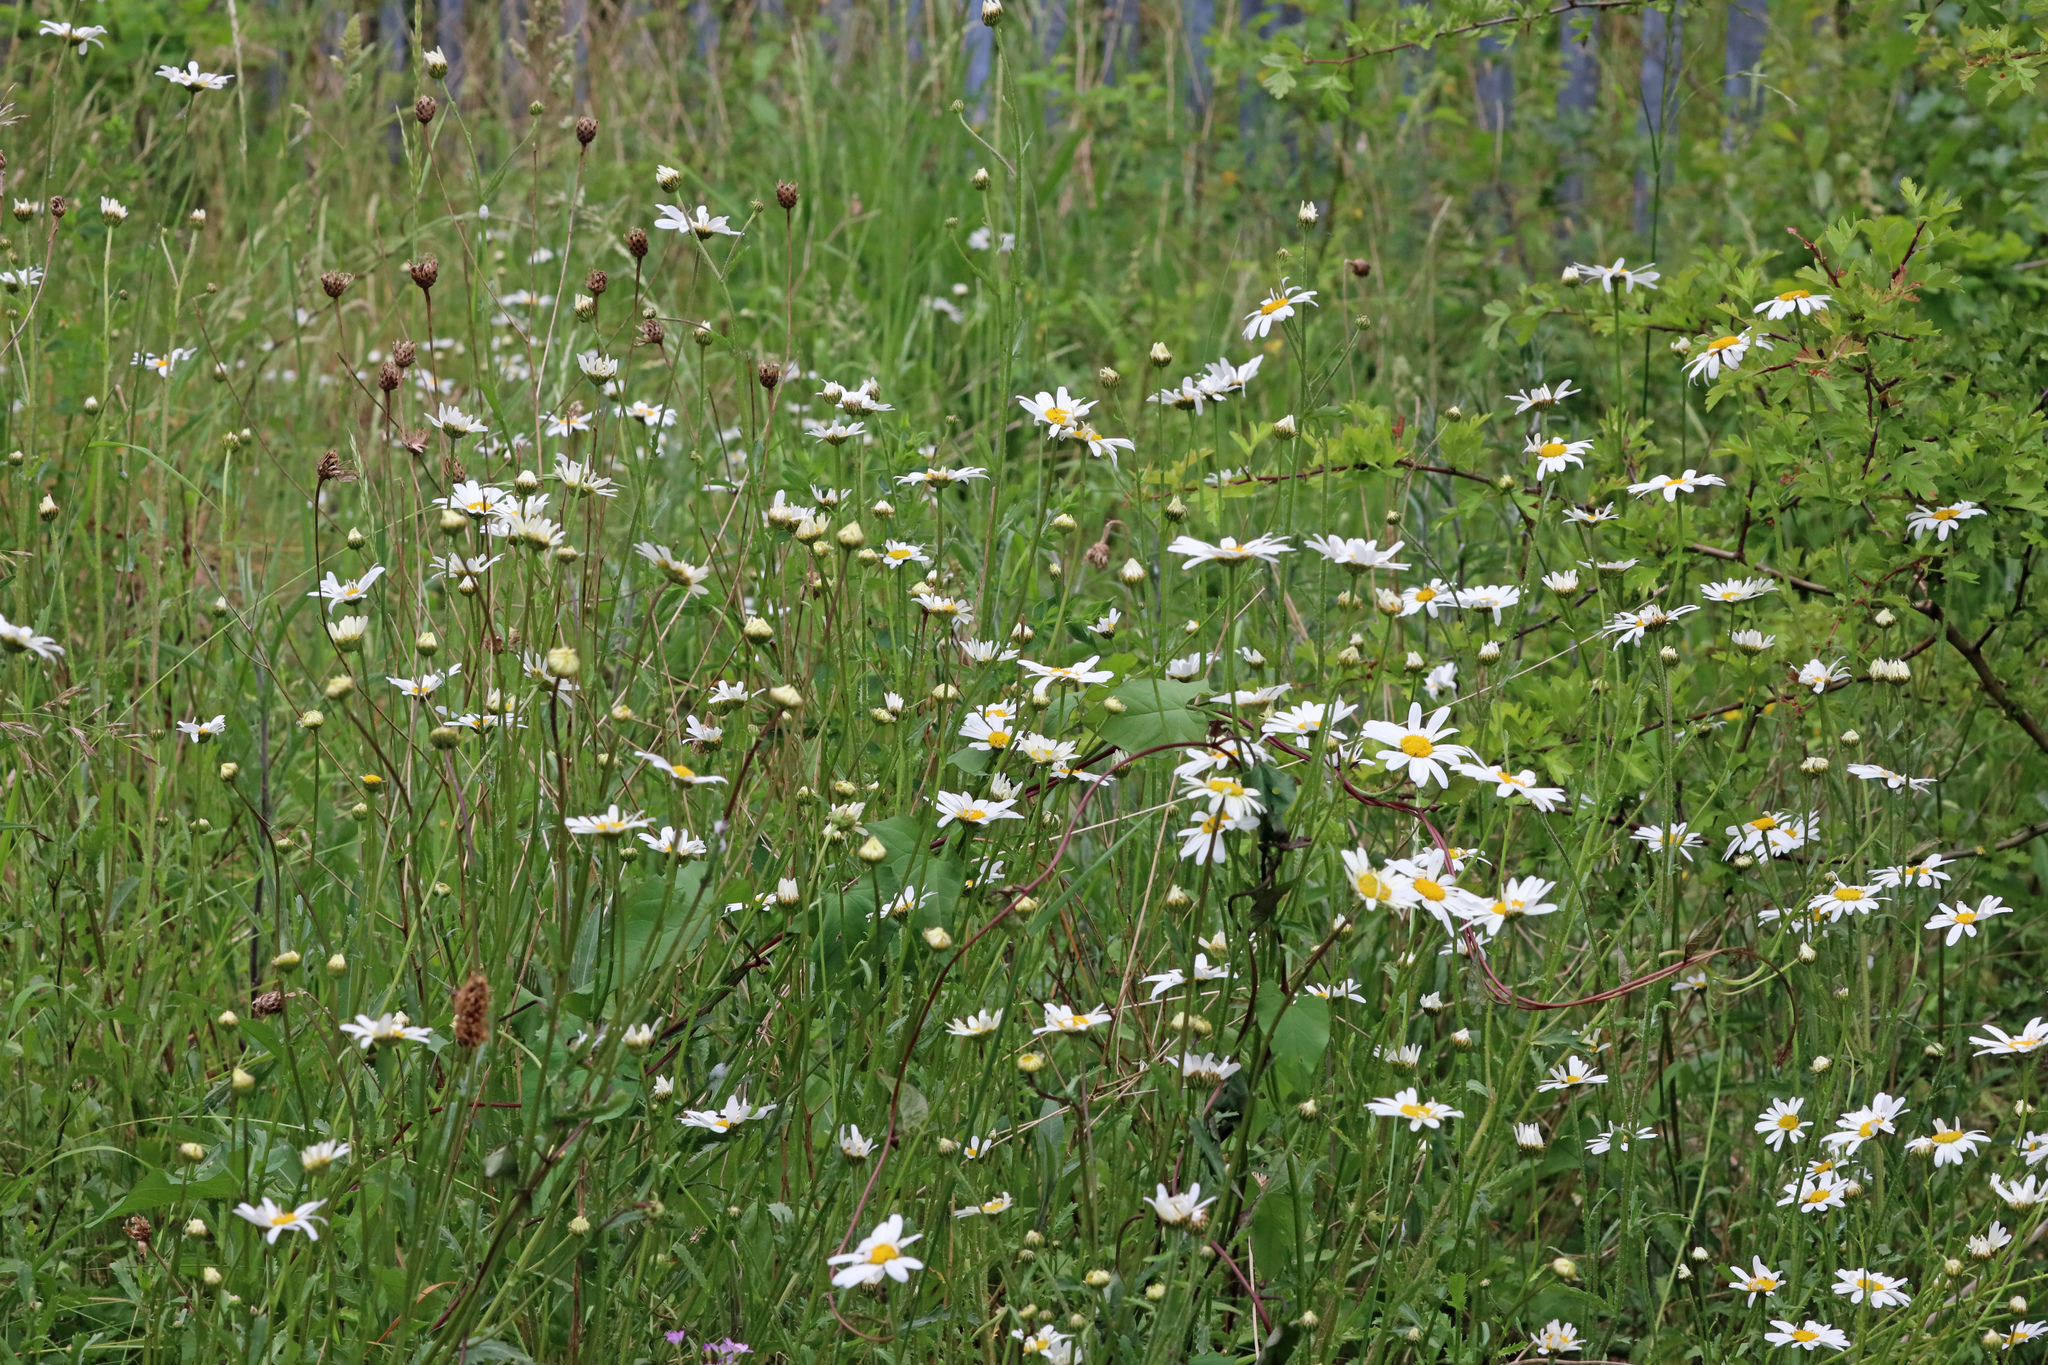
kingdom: Plantae
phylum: Tracheophyta
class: Magnoliopsida
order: Asterales
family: Asteraceae
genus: Leucanthemum
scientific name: Leucanthemum vulgare
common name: Oxeye daisy
